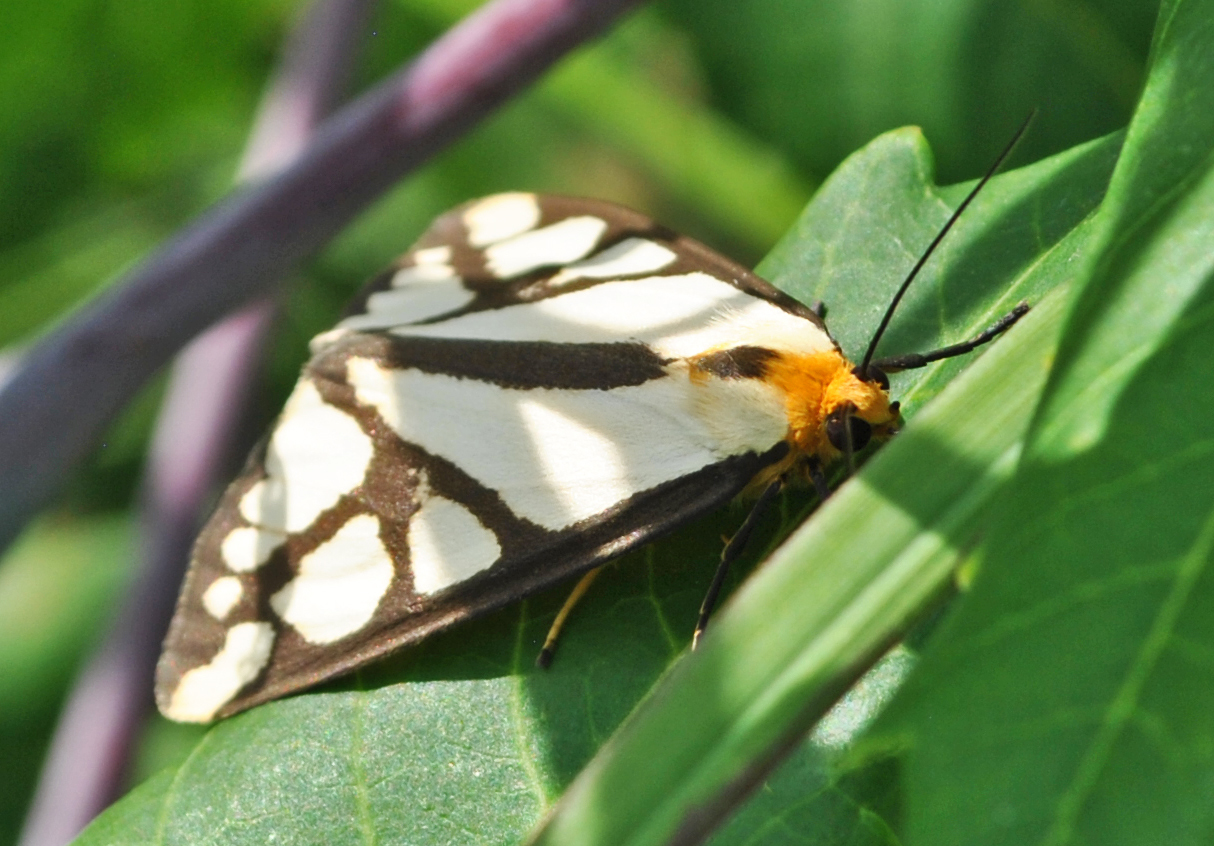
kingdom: Animalia
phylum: Arthropoda
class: Insecta
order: Lepidoptera
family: Erebidae
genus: Haploa
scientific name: Haploa reversa
